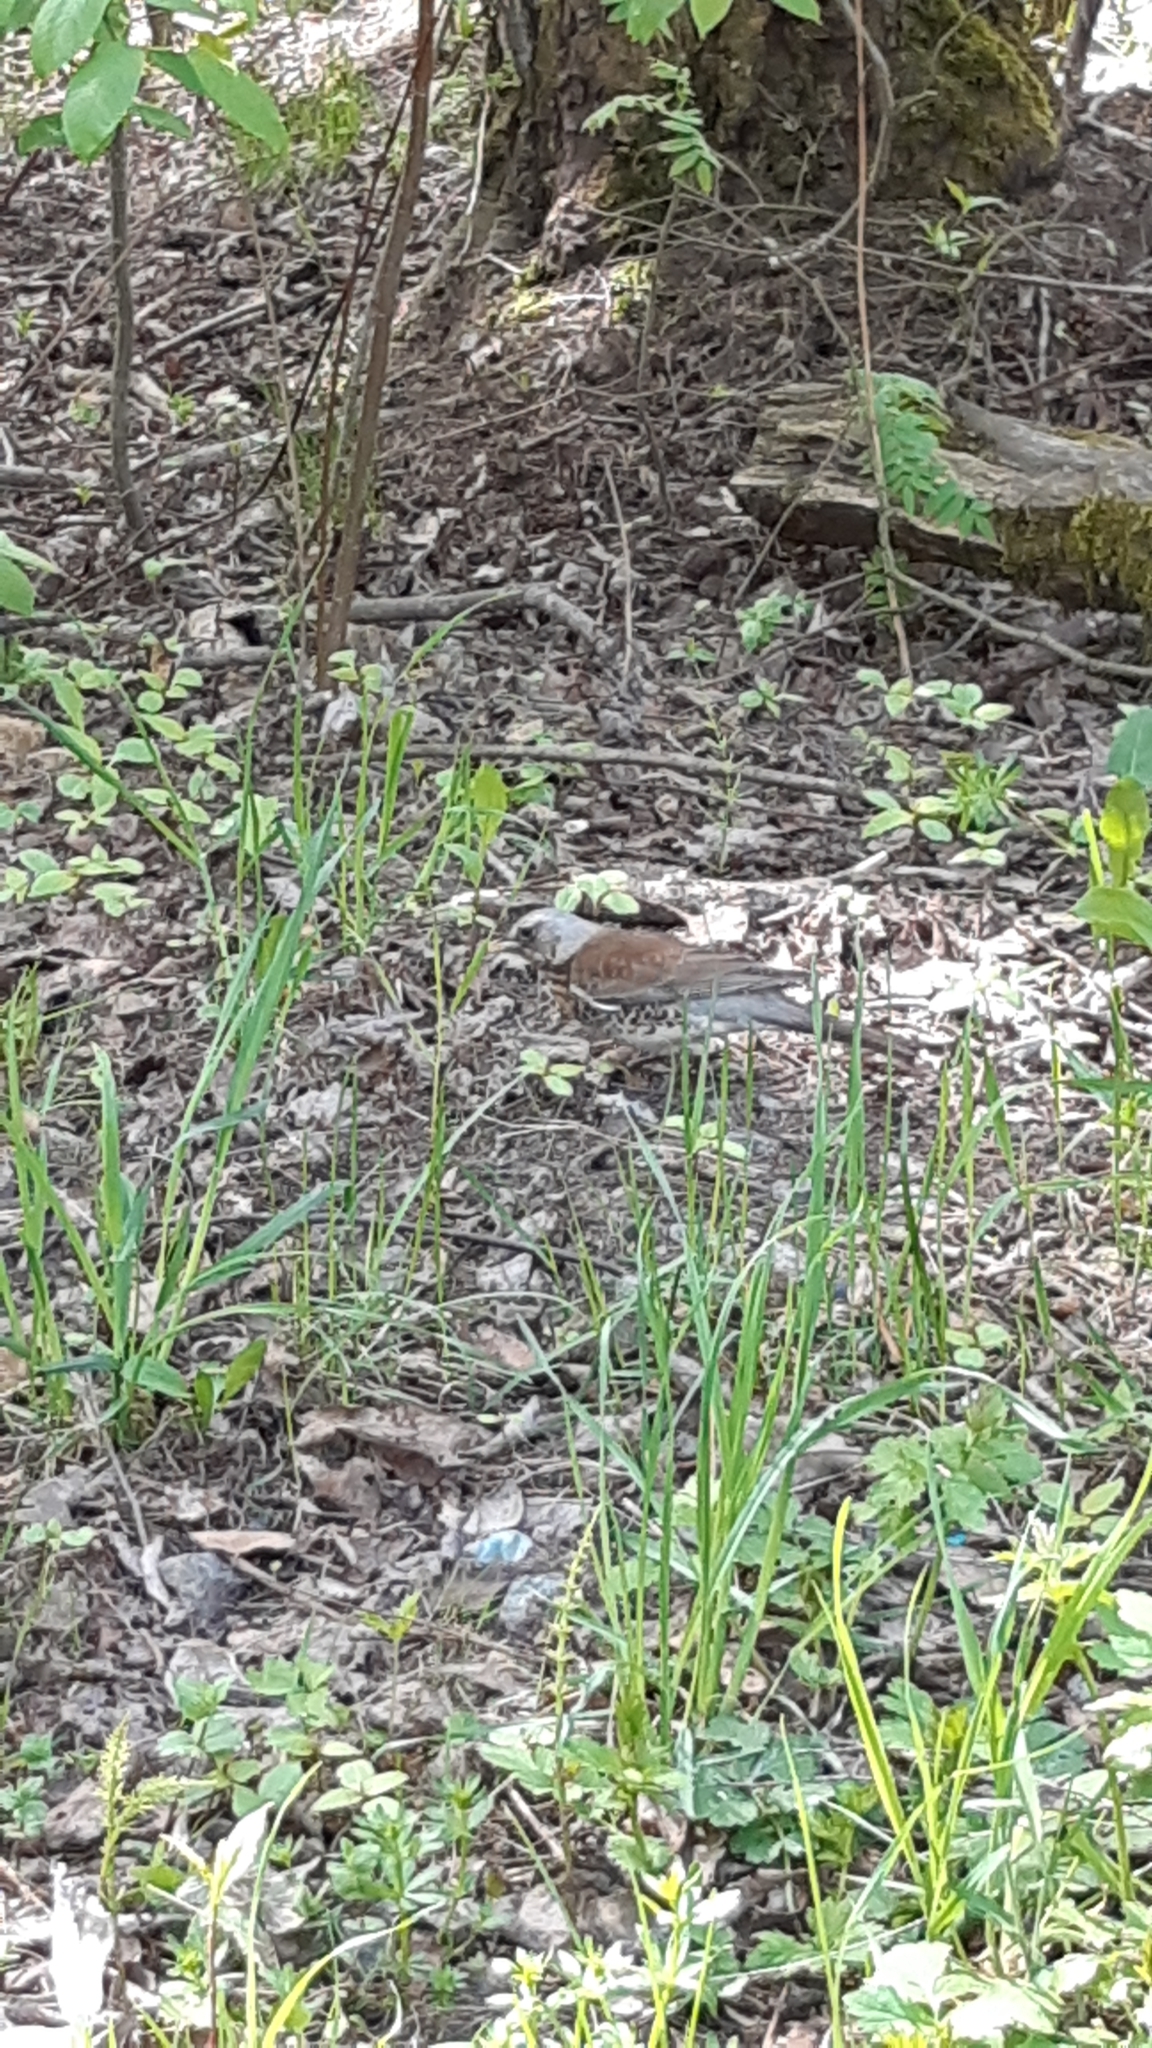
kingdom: Animalia
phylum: Chordata
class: Aves
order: Passeriformes
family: Turdidae
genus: Turdus
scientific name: Turdus pilaris
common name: Fieldfare
